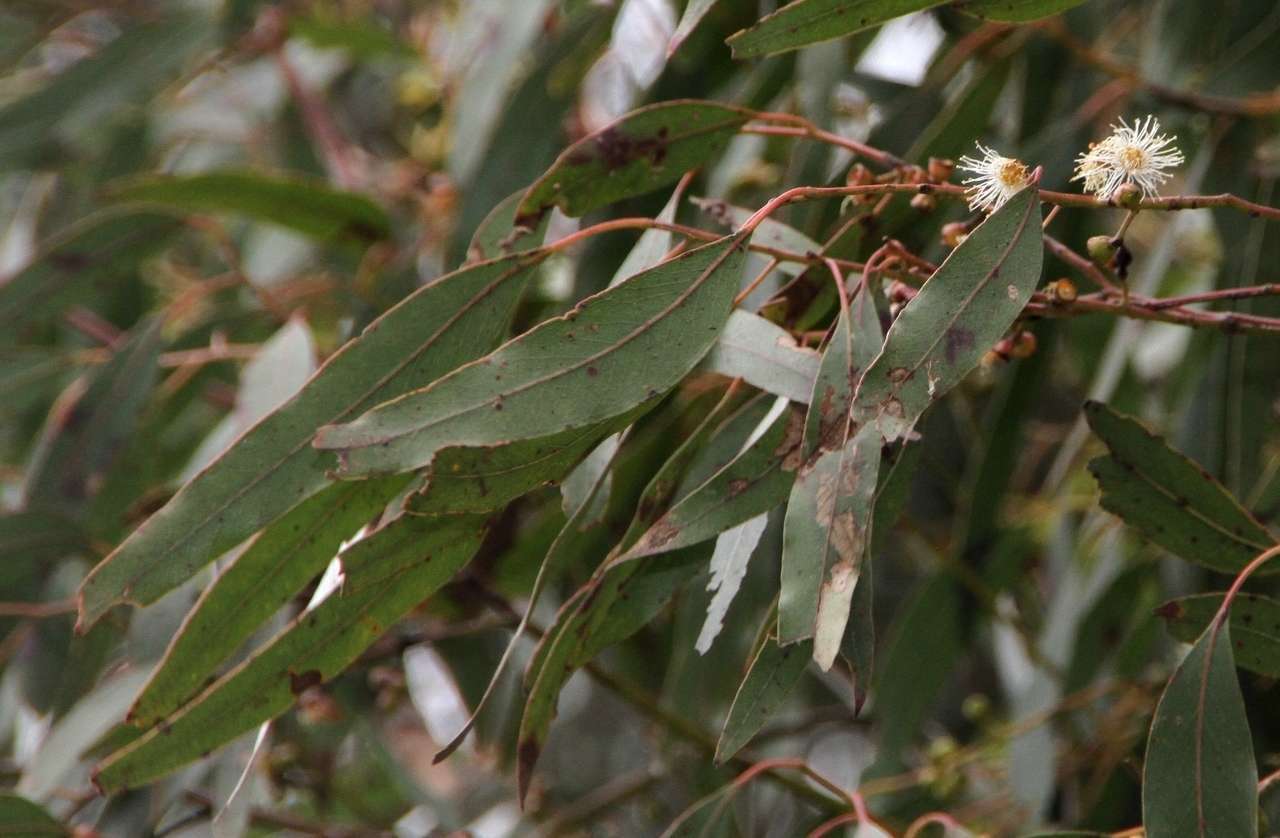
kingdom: Plantae
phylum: Tracheophyta
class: Magnoliopsida
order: Myrtales
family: Myrtaceae
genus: Eucalyptus
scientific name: Eucalyptus rubida
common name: Candlebark
